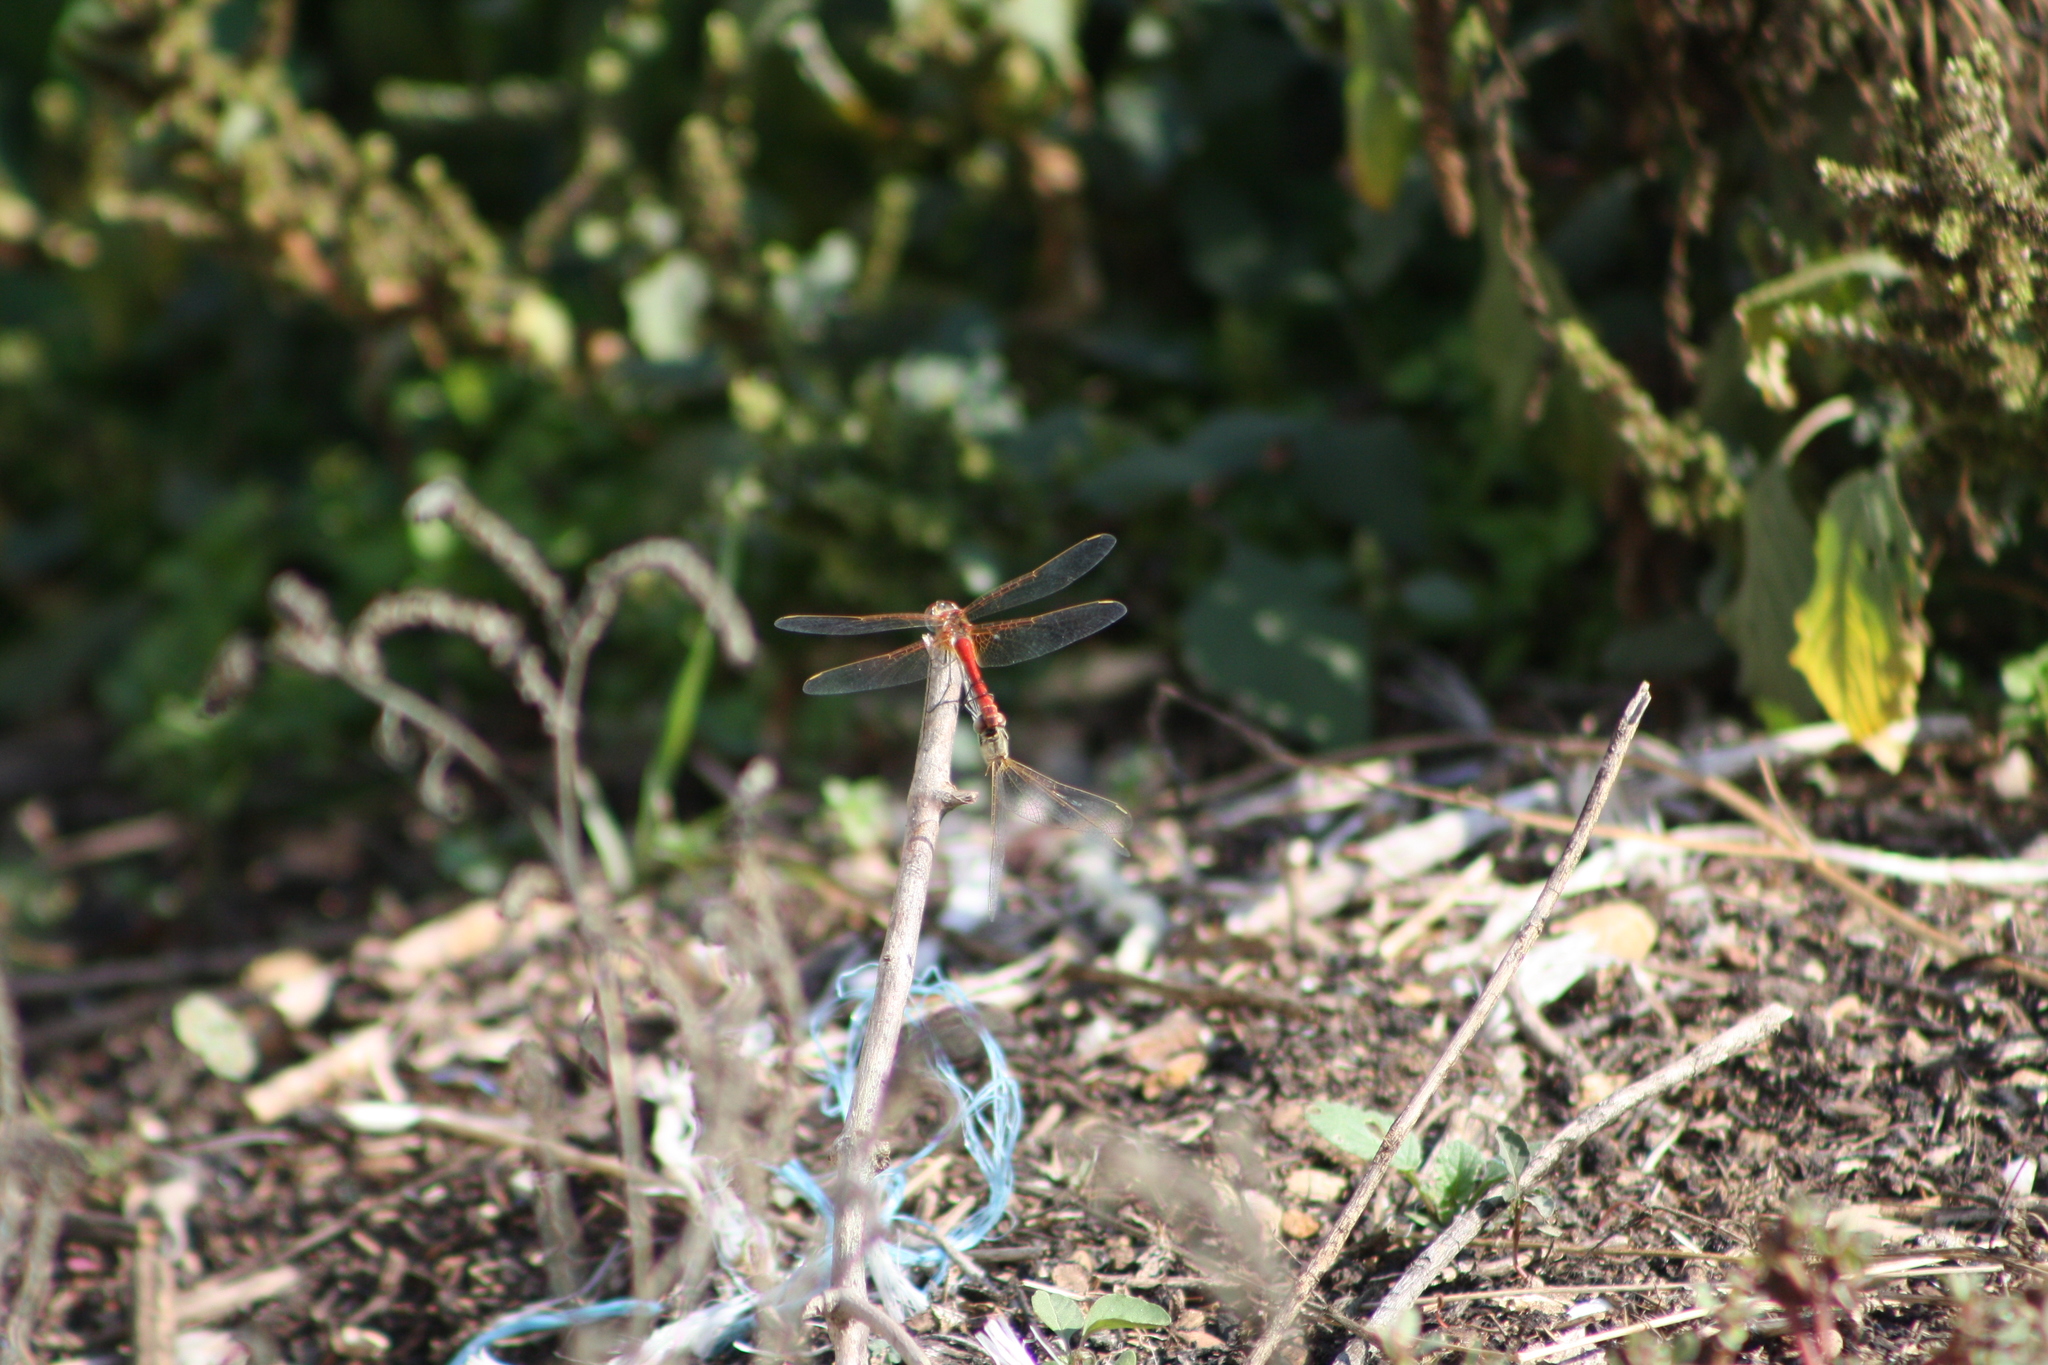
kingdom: Animalia
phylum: Arthropoda
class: Insecta
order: Odonata
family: Libellulidae
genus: Sympetrum
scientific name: Sympetrum fonscolombii
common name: Red-veined darter
